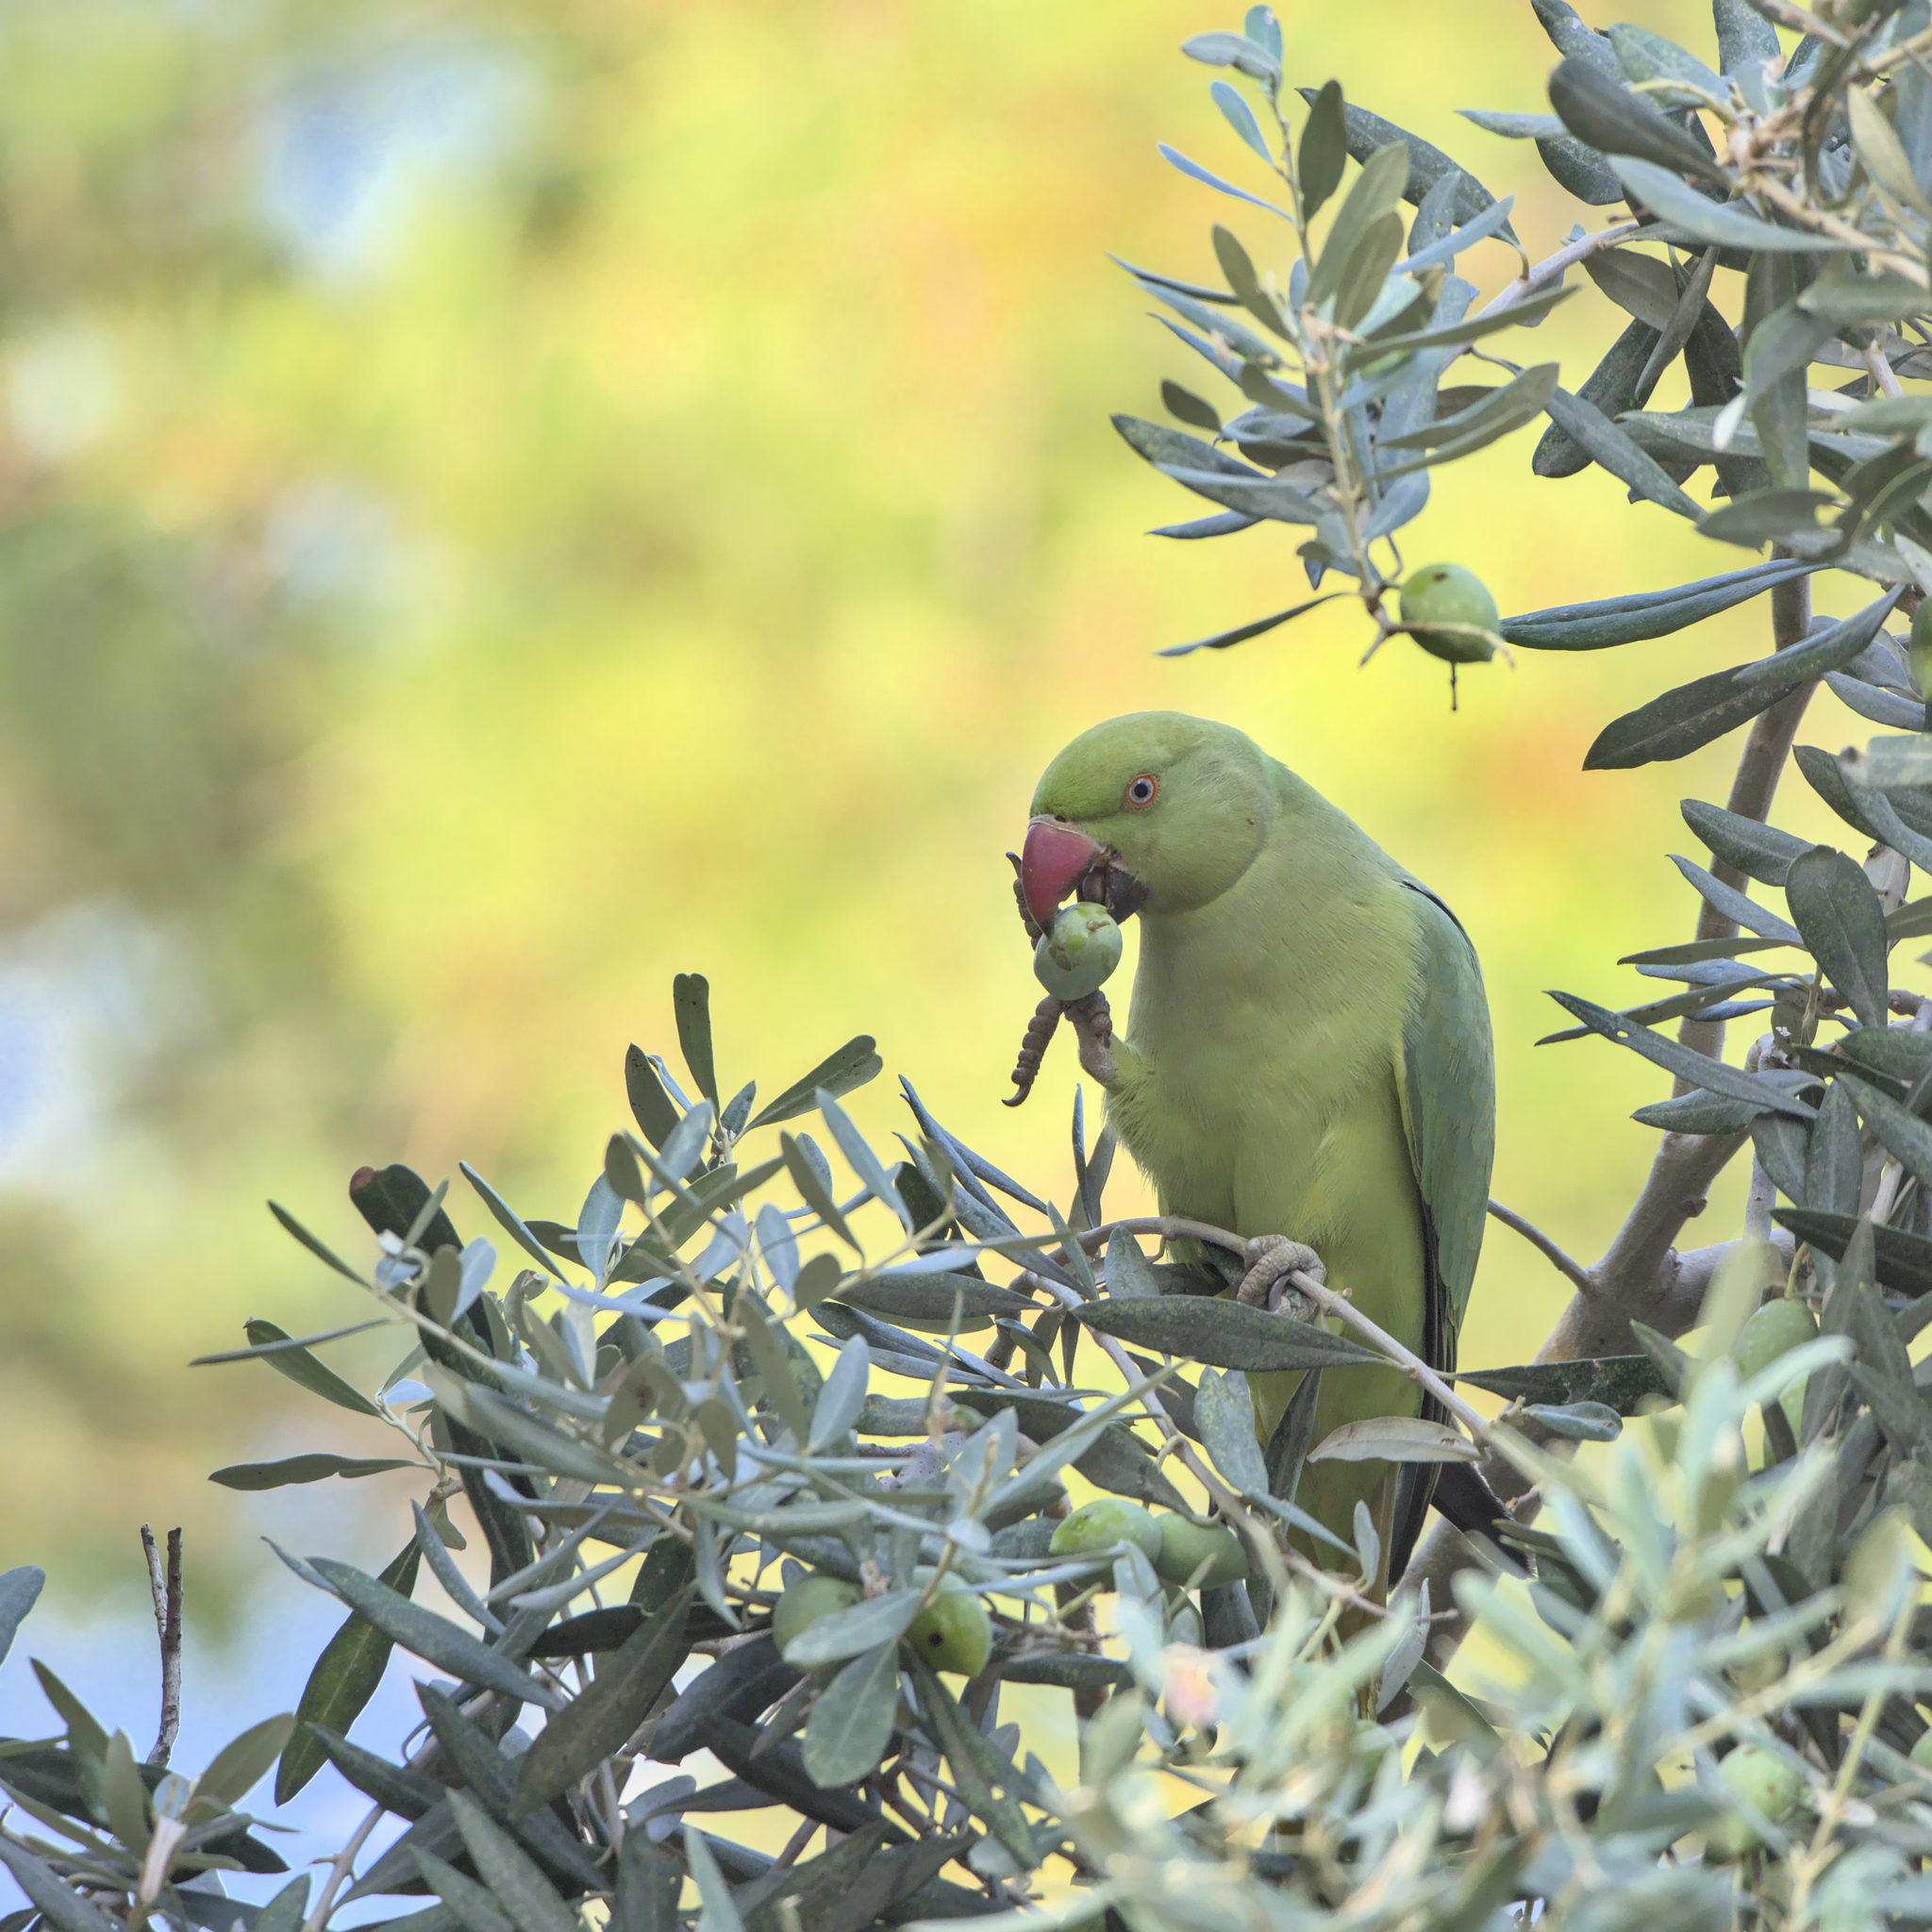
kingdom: Animalia
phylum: Chordata
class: Aves
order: Psittaciformes
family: Psittacidae
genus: Psittacula
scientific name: Psittacula krameri
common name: Rose-ringed parakeet
